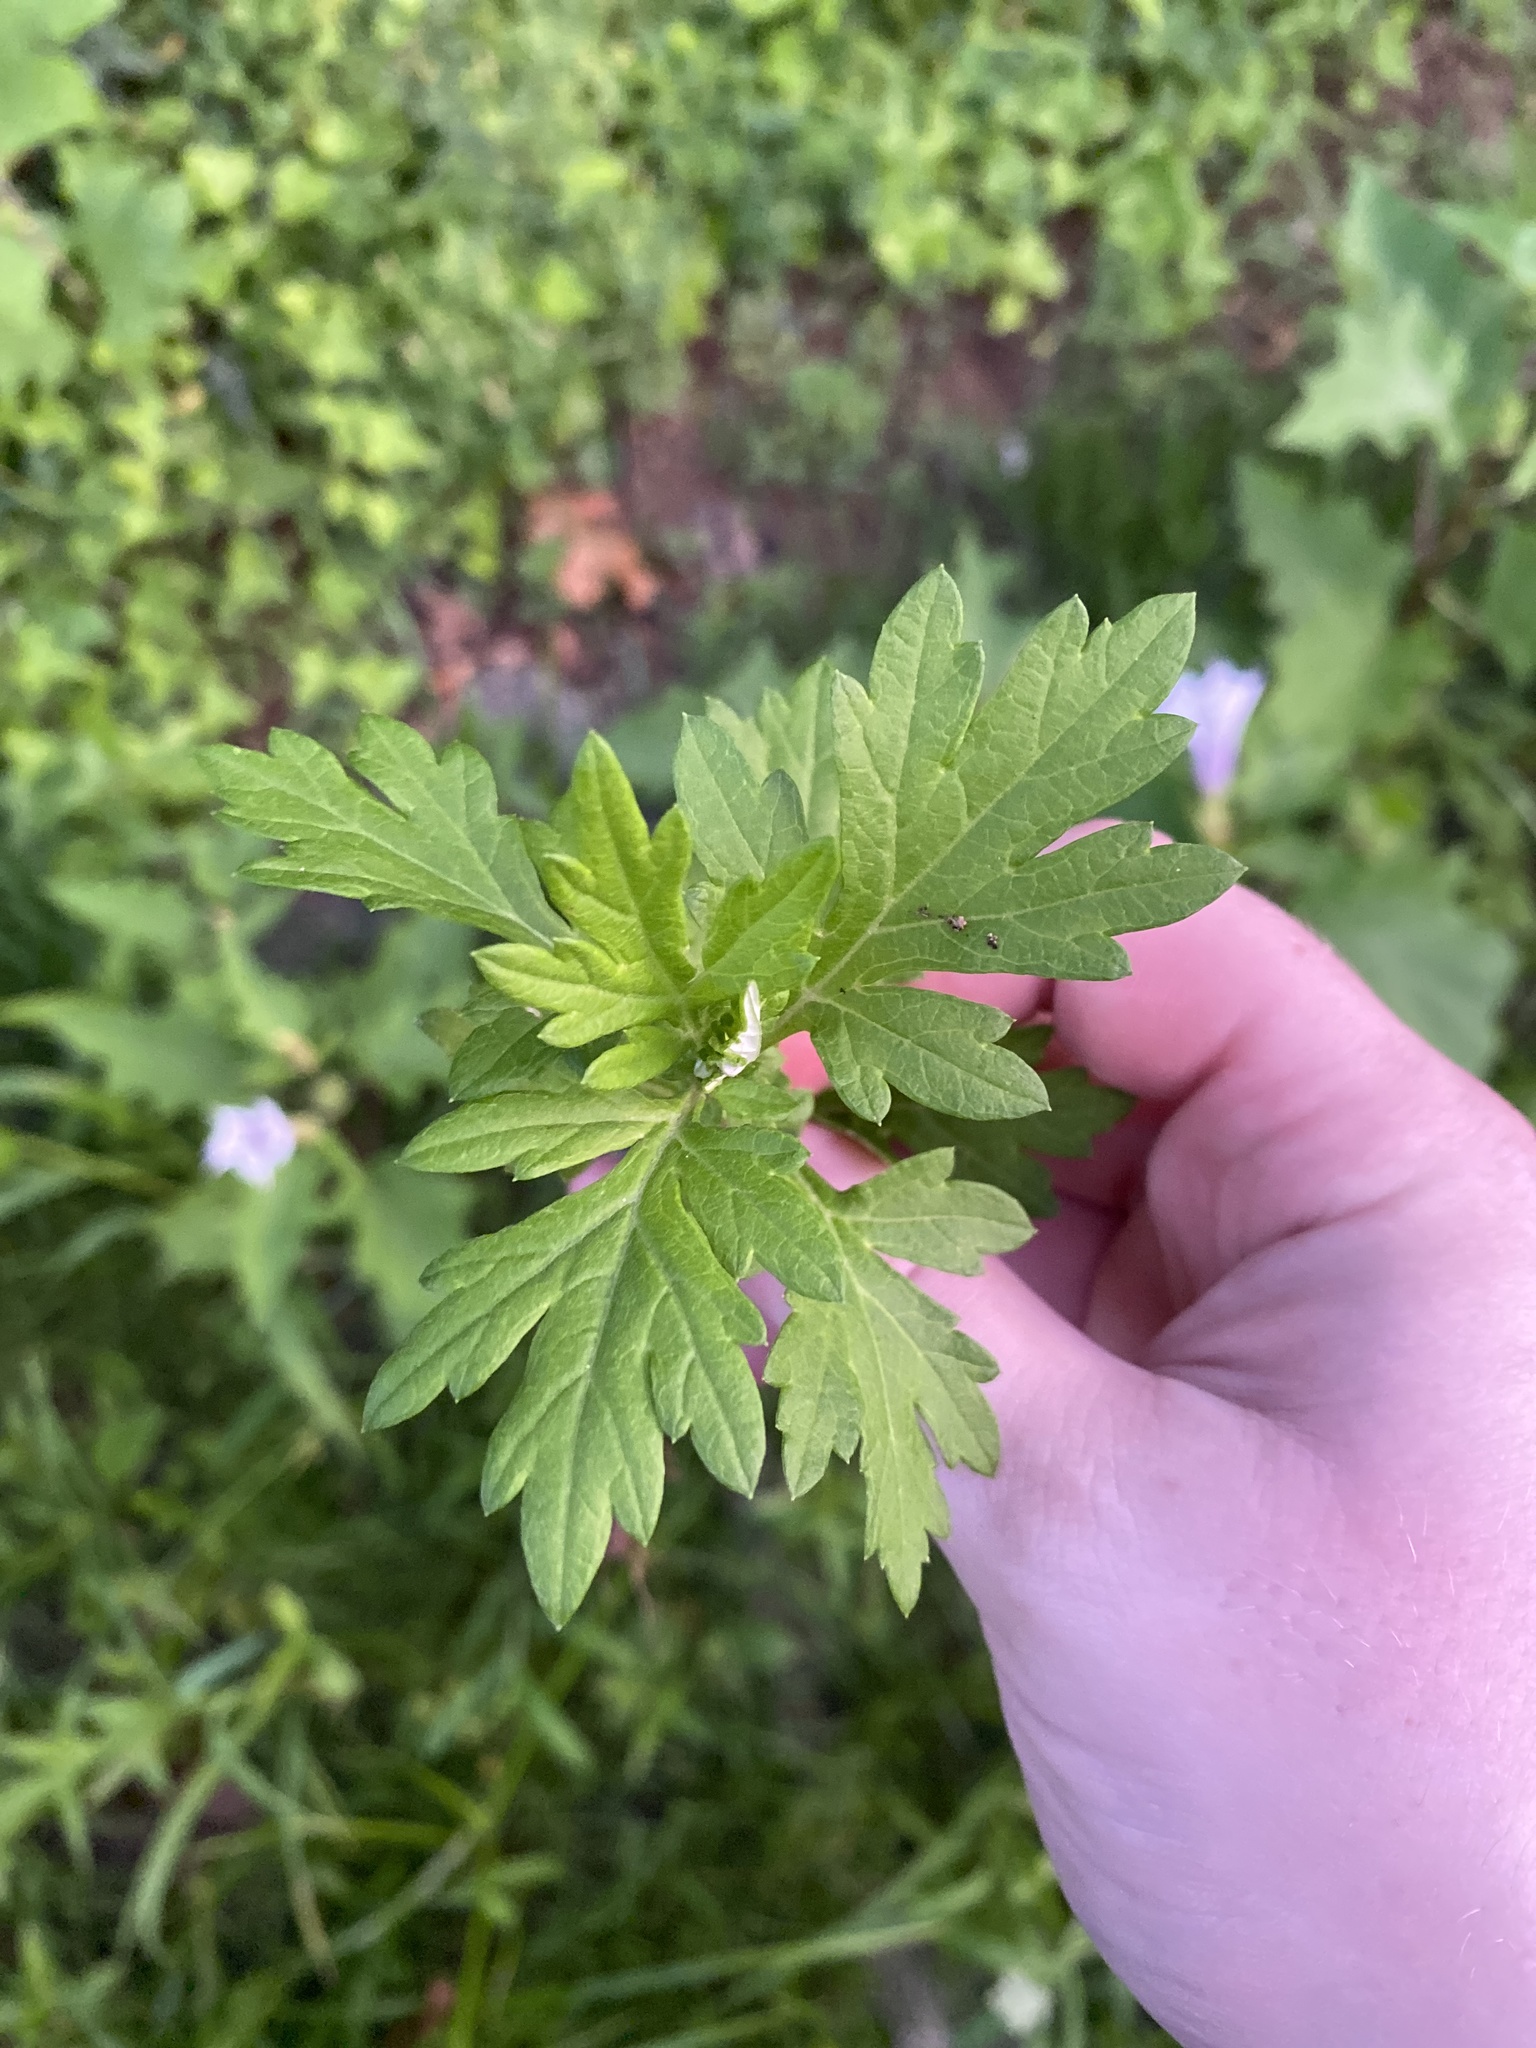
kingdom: Plantae
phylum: Tracheophyta
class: Magnoliopsida
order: Asterales
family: Asteraceae
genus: Artemisia
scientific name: Artemisia vulgaris
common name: Mugwort
